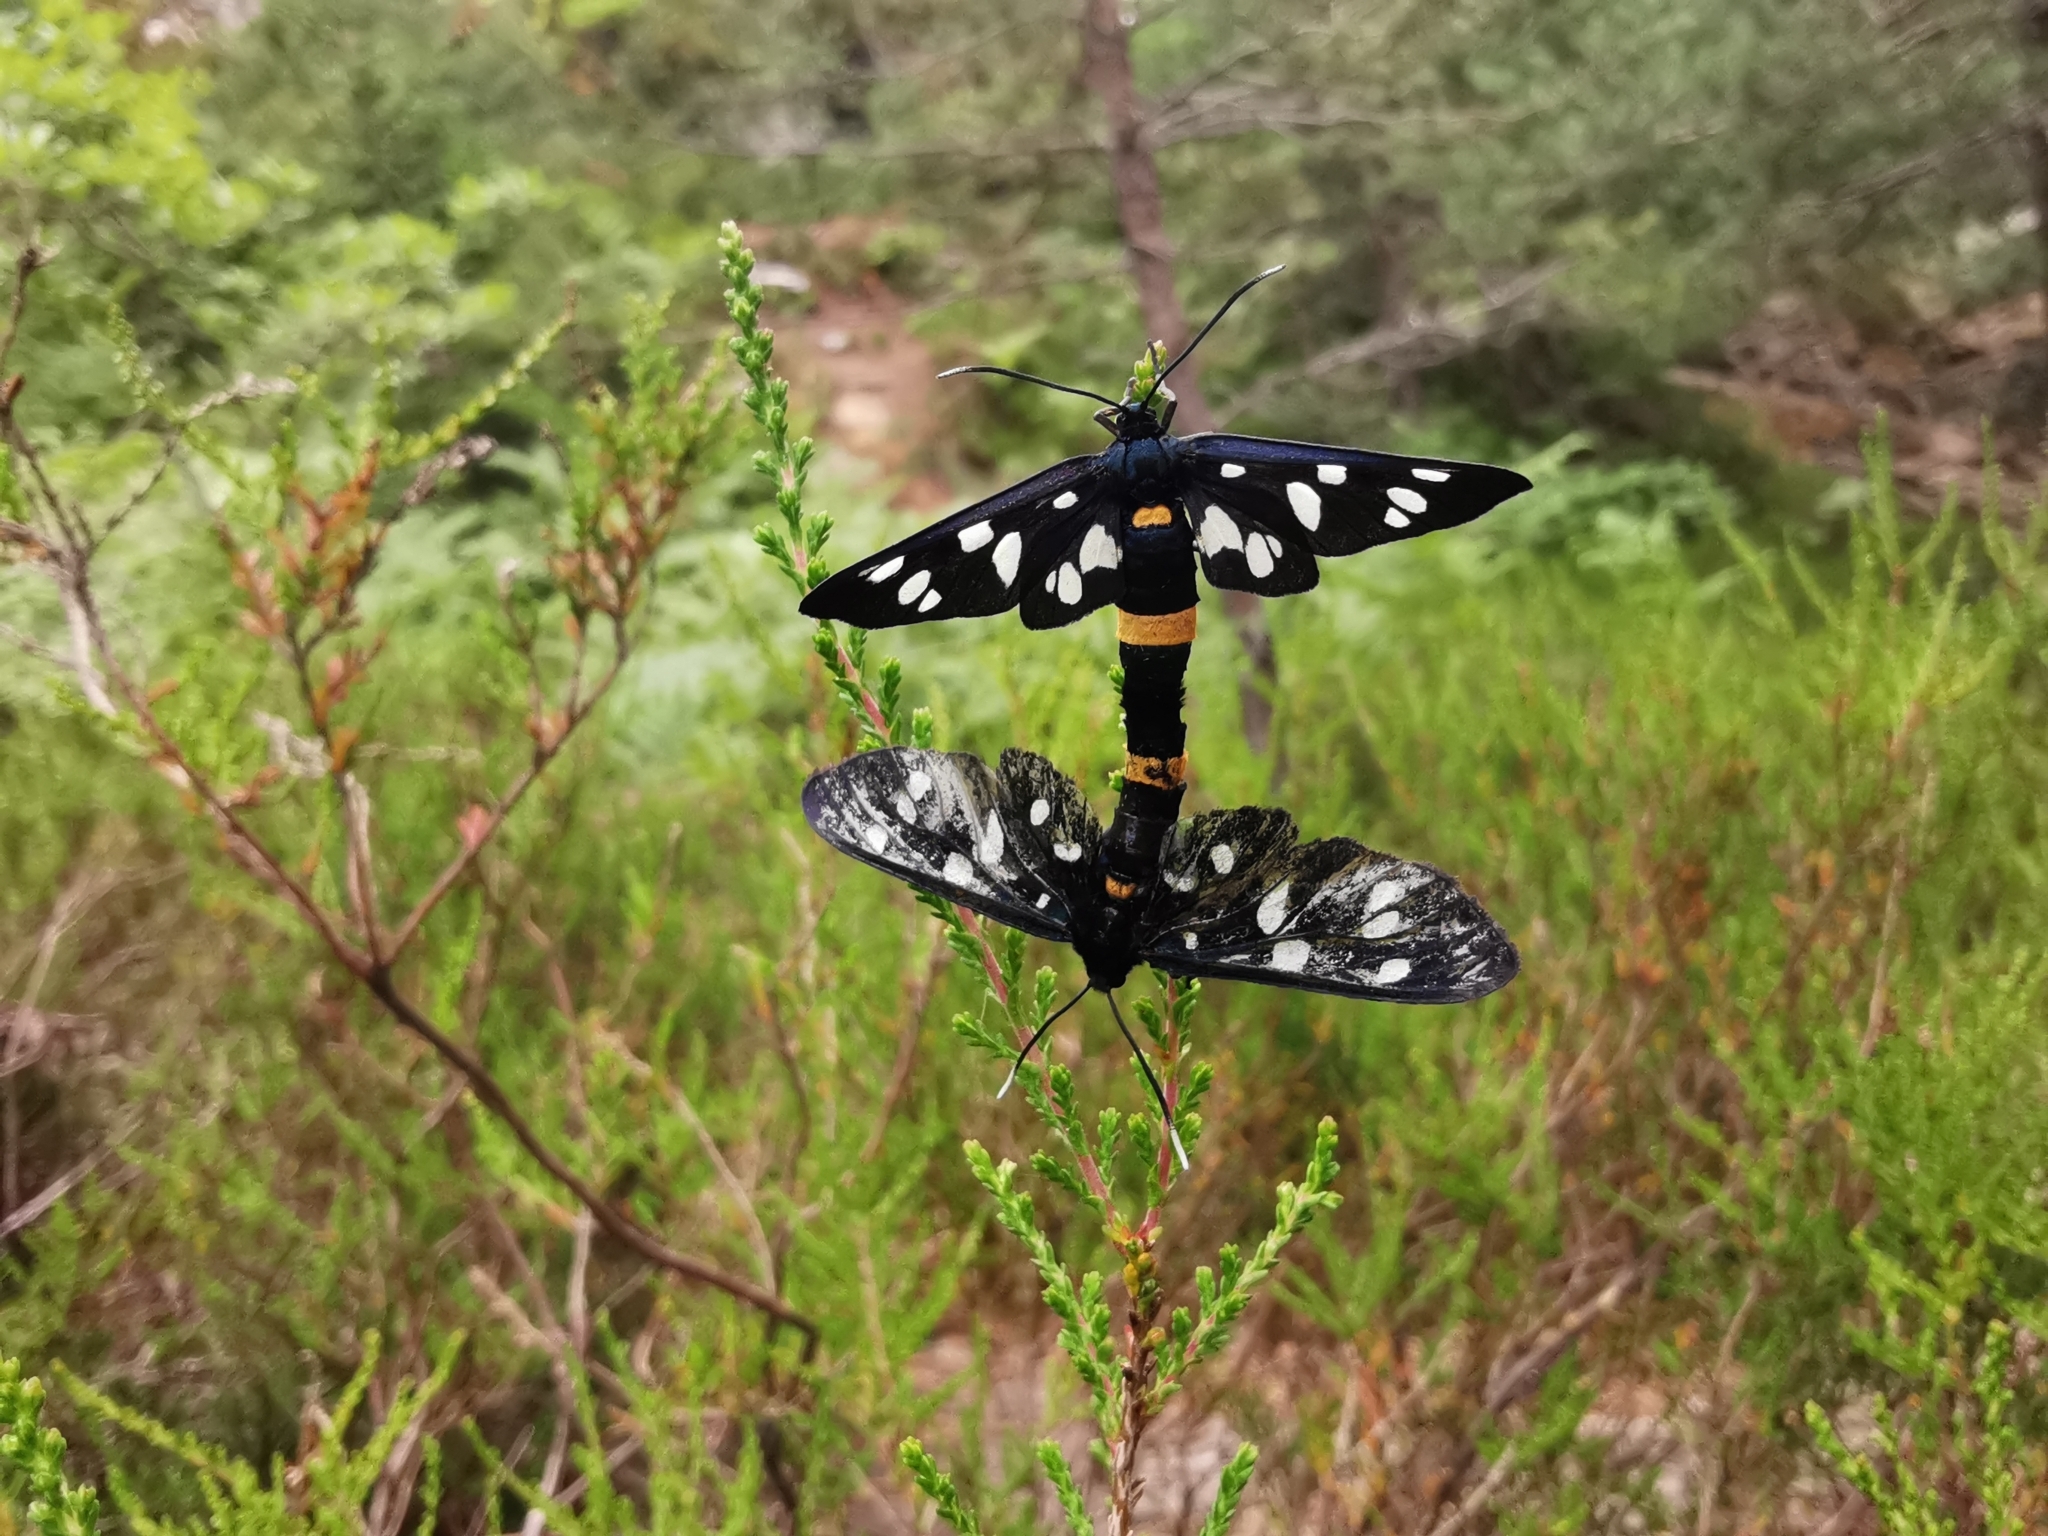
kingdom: Animalia
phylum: Arthropoda
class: Insecta
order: Lepidoptera
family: Erebidae
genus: Amata
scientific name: Amata phegea
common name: Nine-spotted
